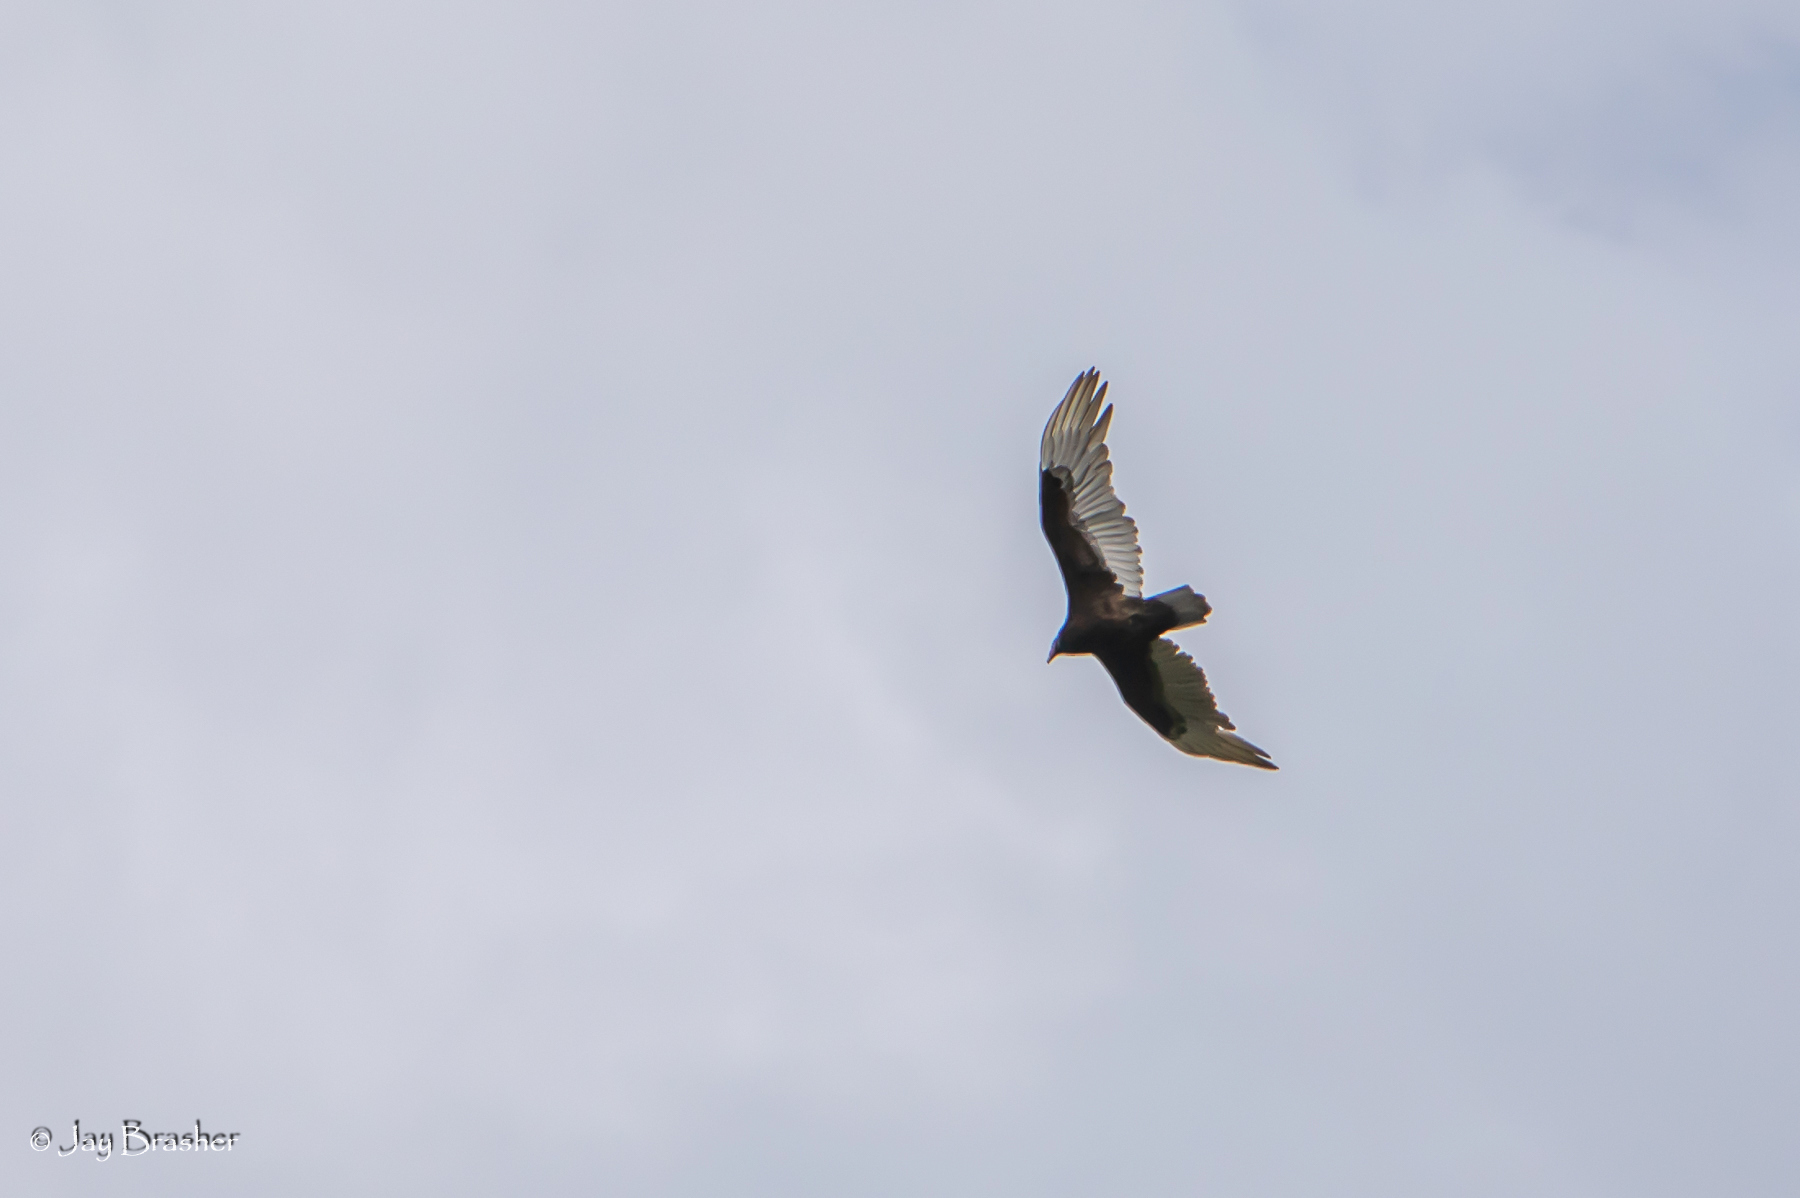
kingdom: Animalia
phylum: Chordata
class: Aves
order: Accipitriformes
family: Cathartidae
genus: Cathartes
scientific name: Cathartes aura
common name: Turkey vulture
